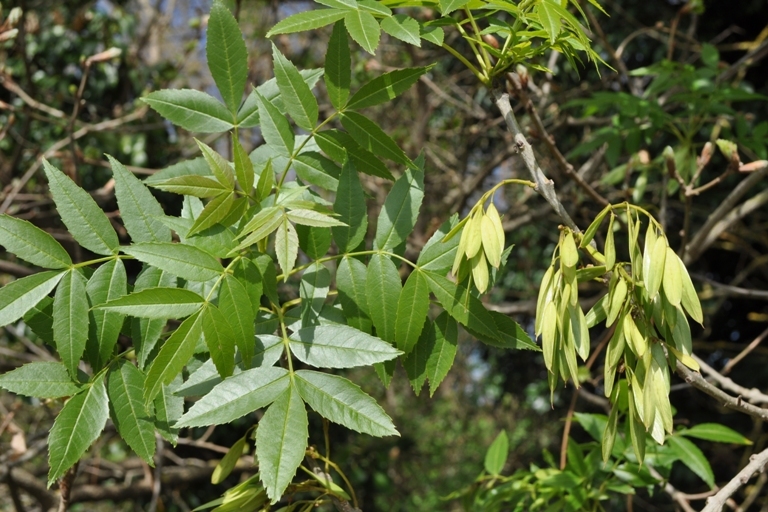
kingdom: Plantae
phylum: Tracheophyta
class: Magnoliopsida
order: Lamiales
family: Oleaceae
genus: Fraxinus
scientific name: Fraxinus angustifolia
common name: Narrow-leafed ash
